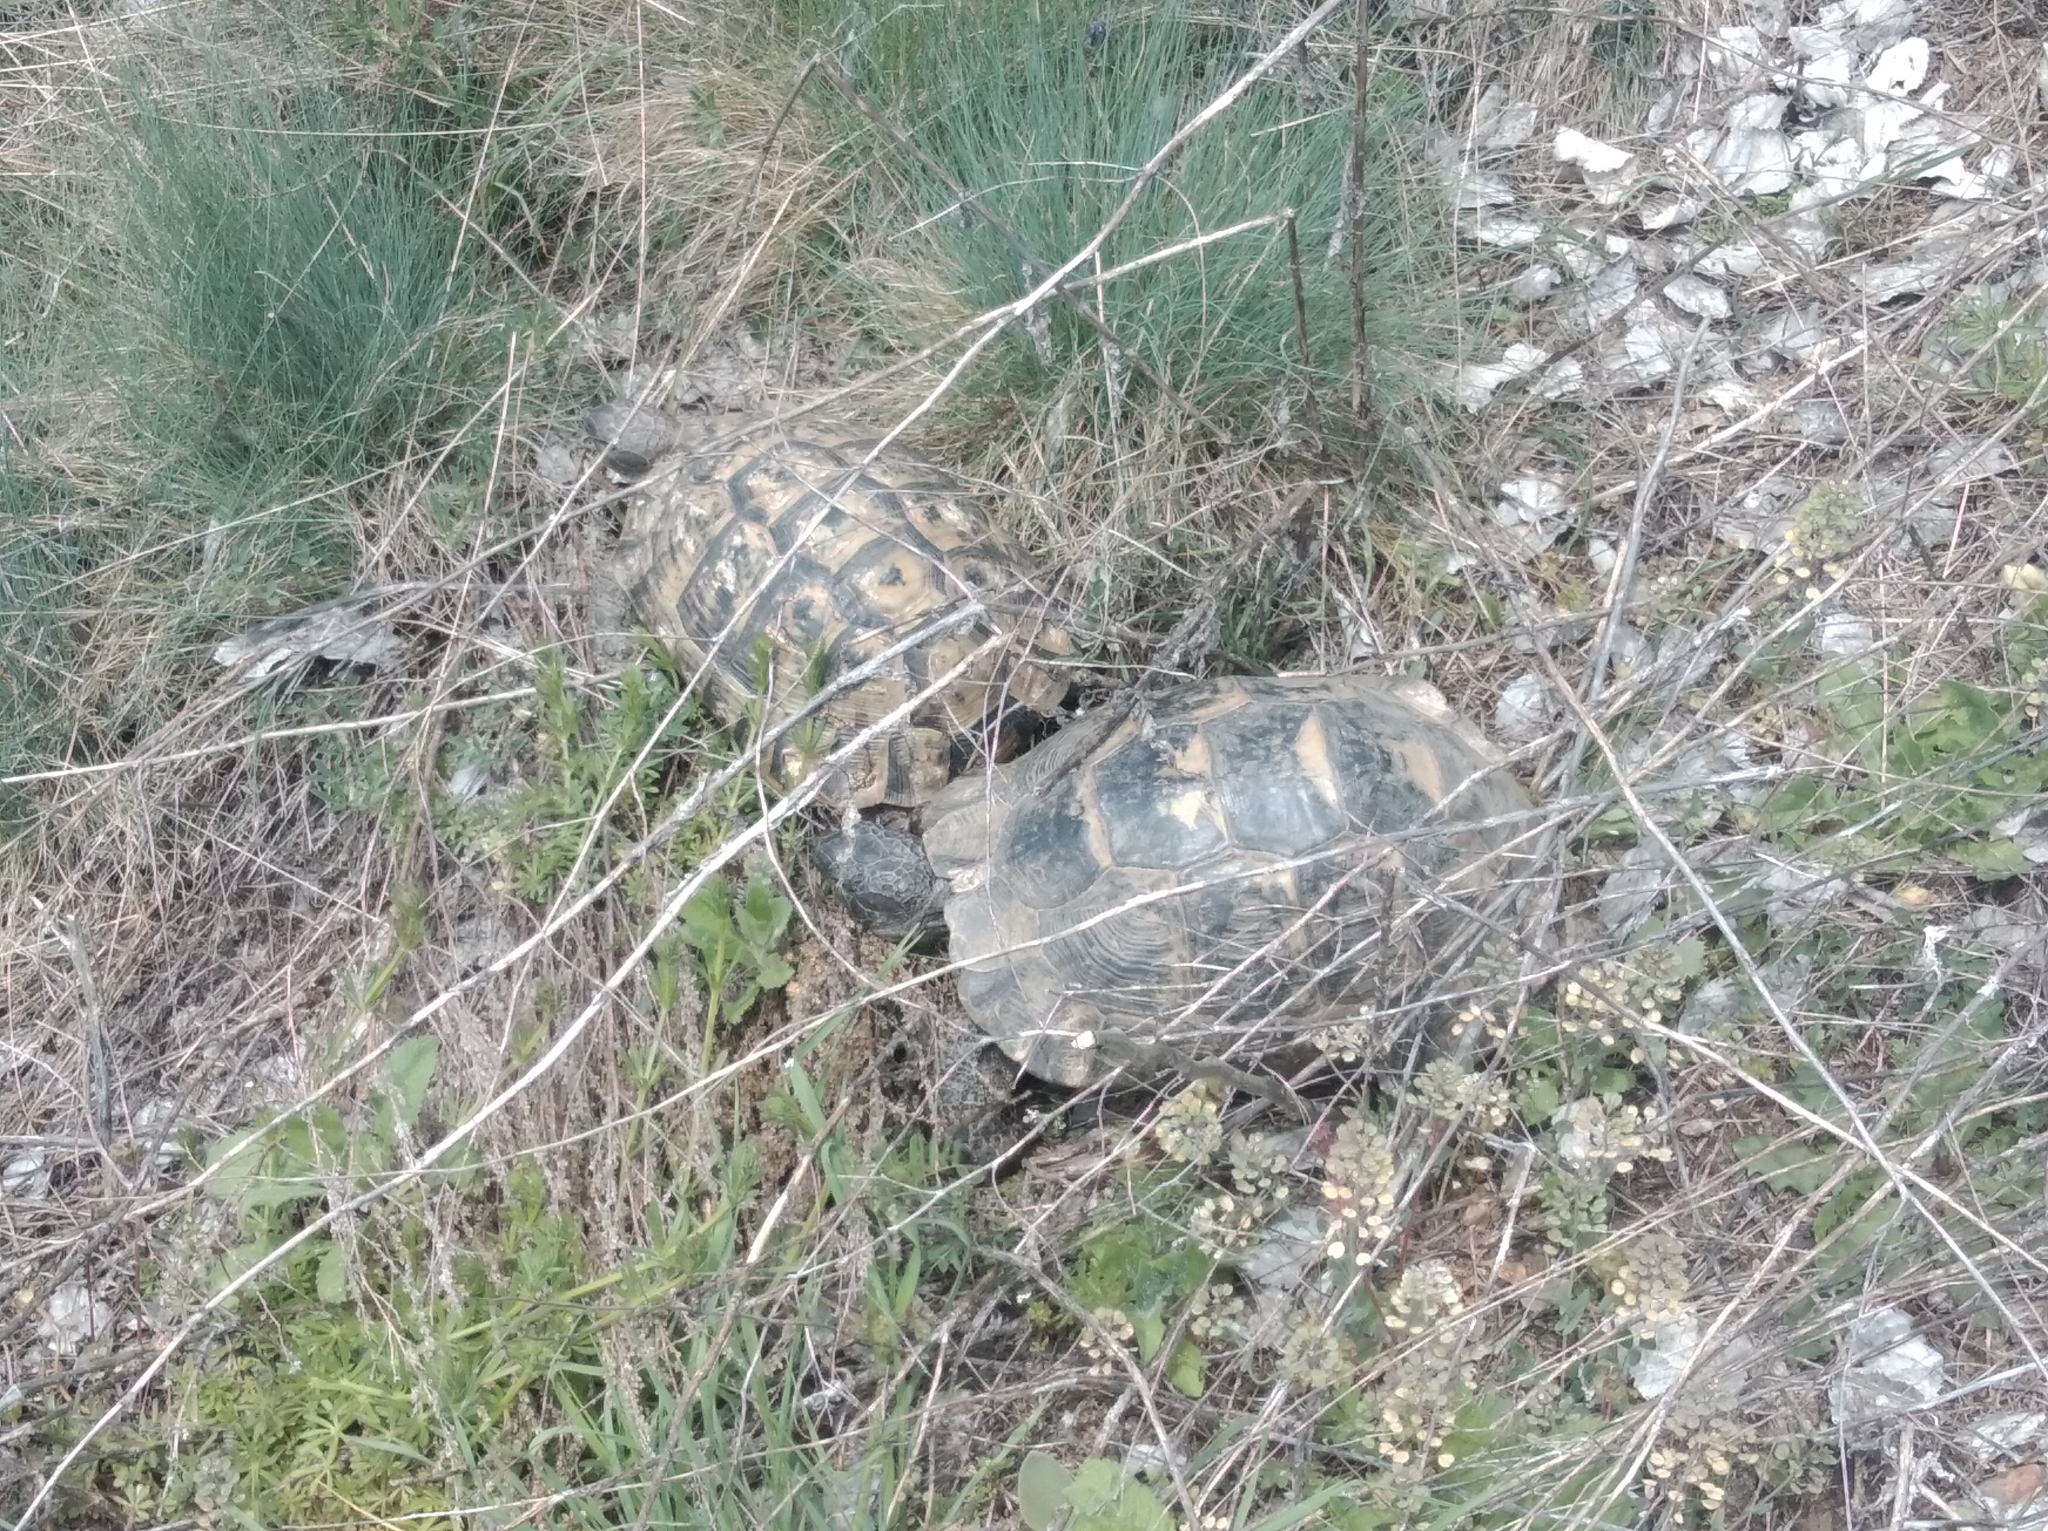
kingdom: Animalia
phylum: Chordata
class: Testudines
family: Testudinidae
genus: Testudo
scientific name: Testudo graeca
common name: Common tortoise
